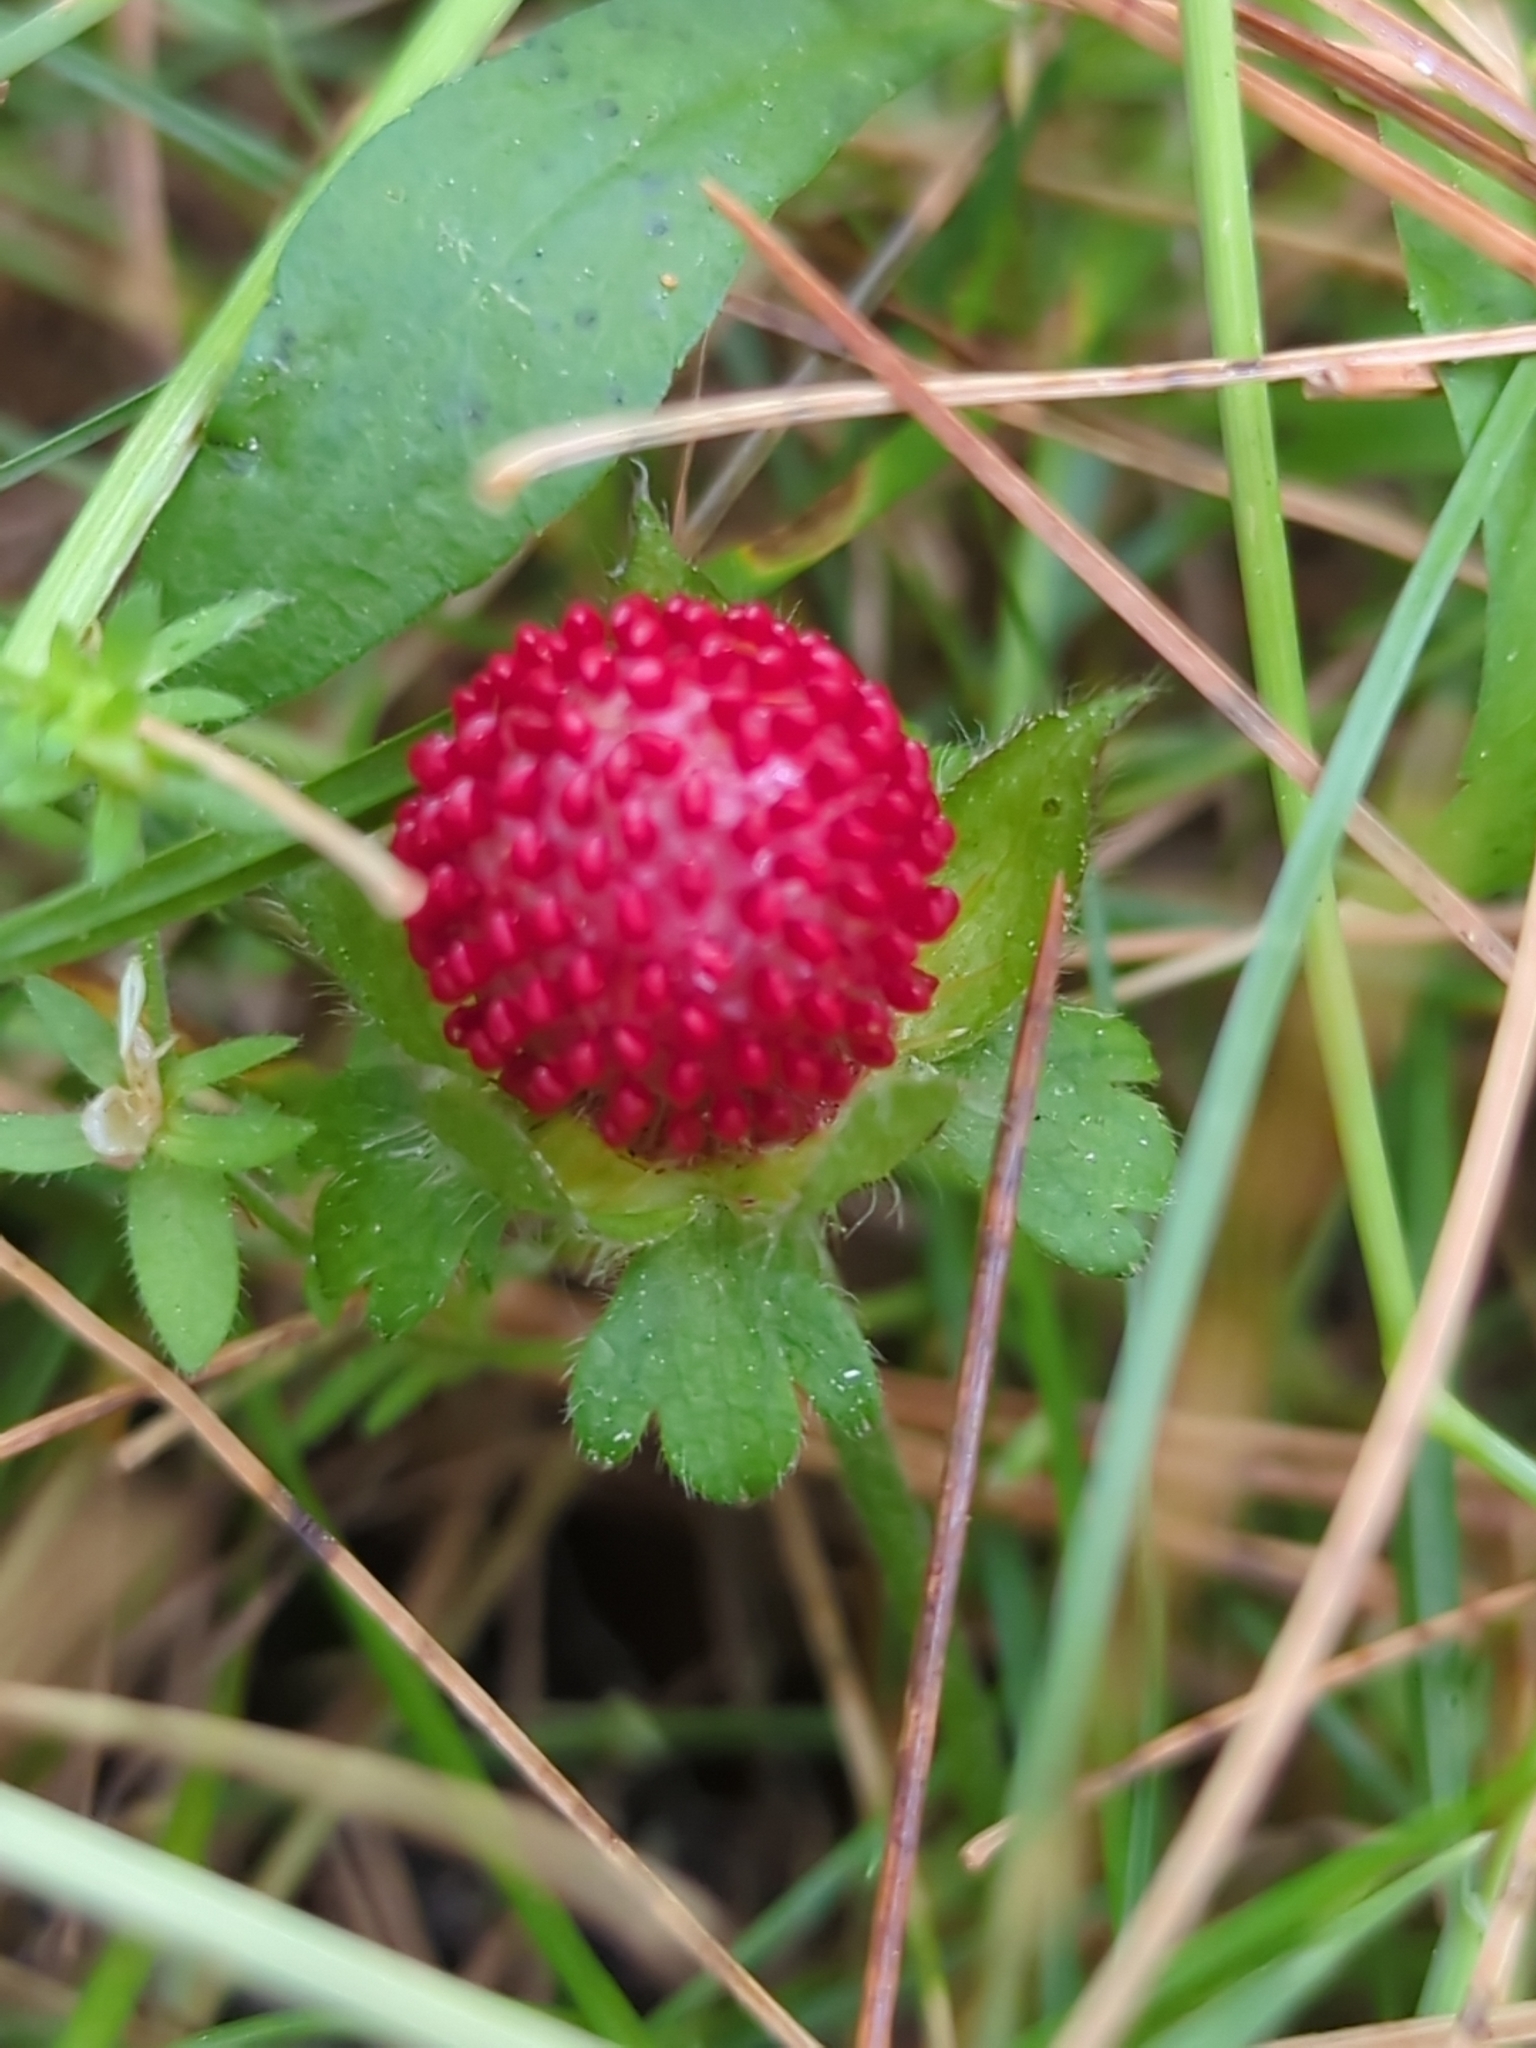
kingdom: Plantae
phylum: Tracheophyta
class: Magnoliopsida
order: Rosales
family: Rosaceae
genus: Potentilla
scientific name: Potentilla indica
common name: Yellow-flowered strawberry
